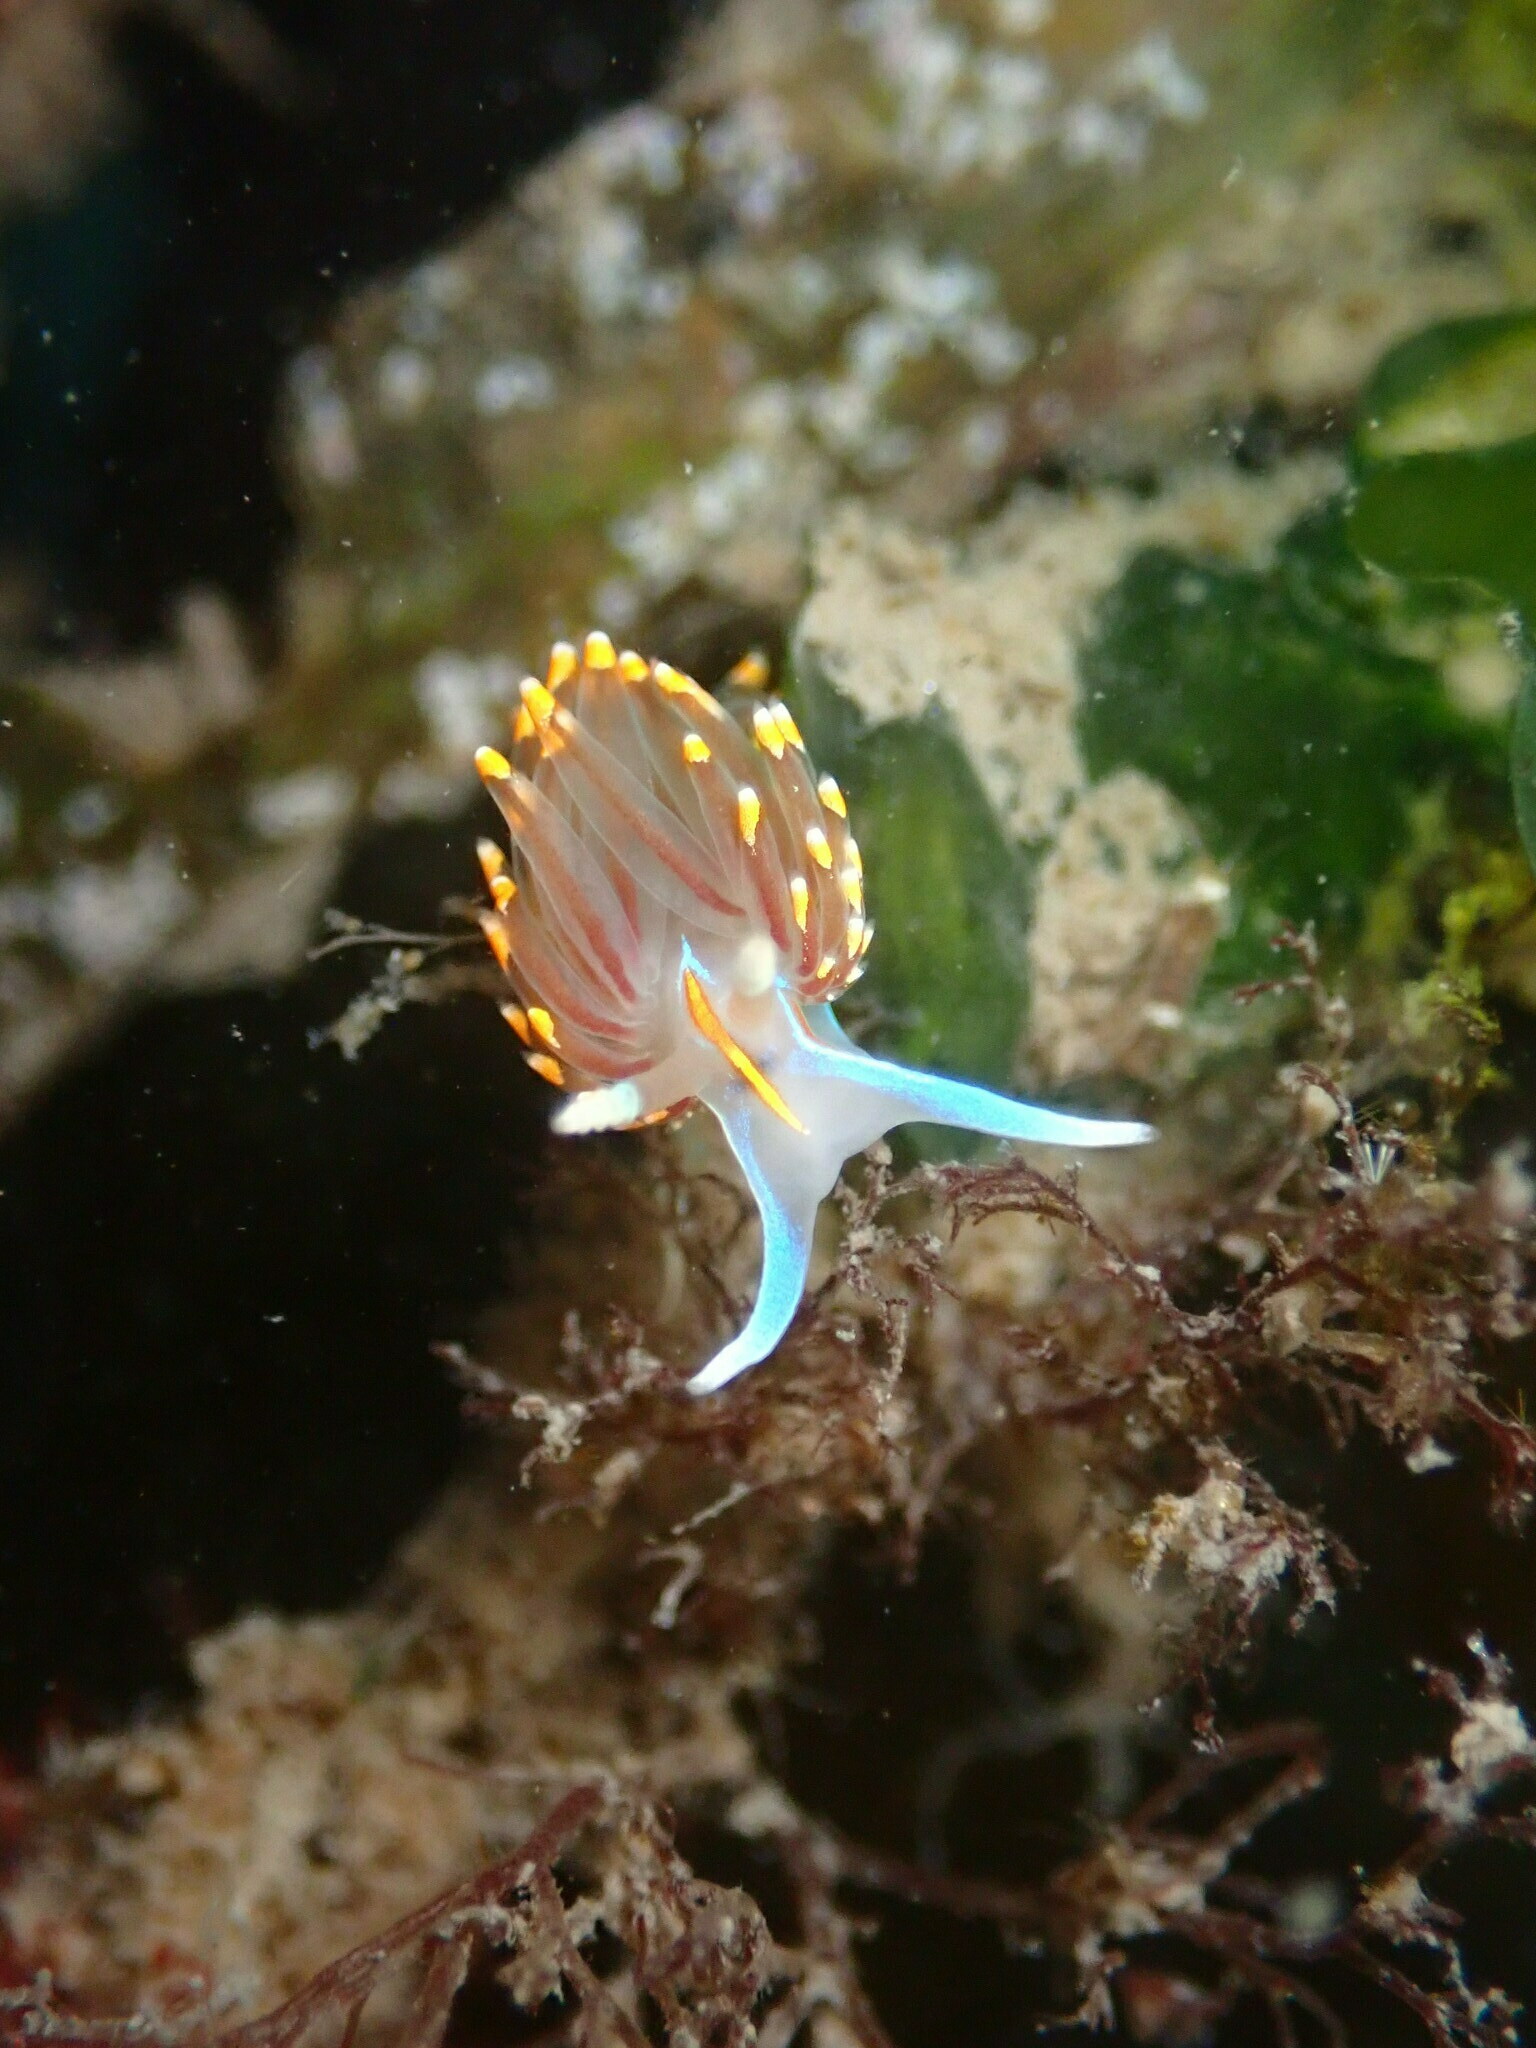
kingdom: Animalia
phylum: Mollusca
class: Gastropoda
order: Nudibranchia
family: Myrrhinidae
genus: Hermissenda
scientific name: Hermissenda opalescens
